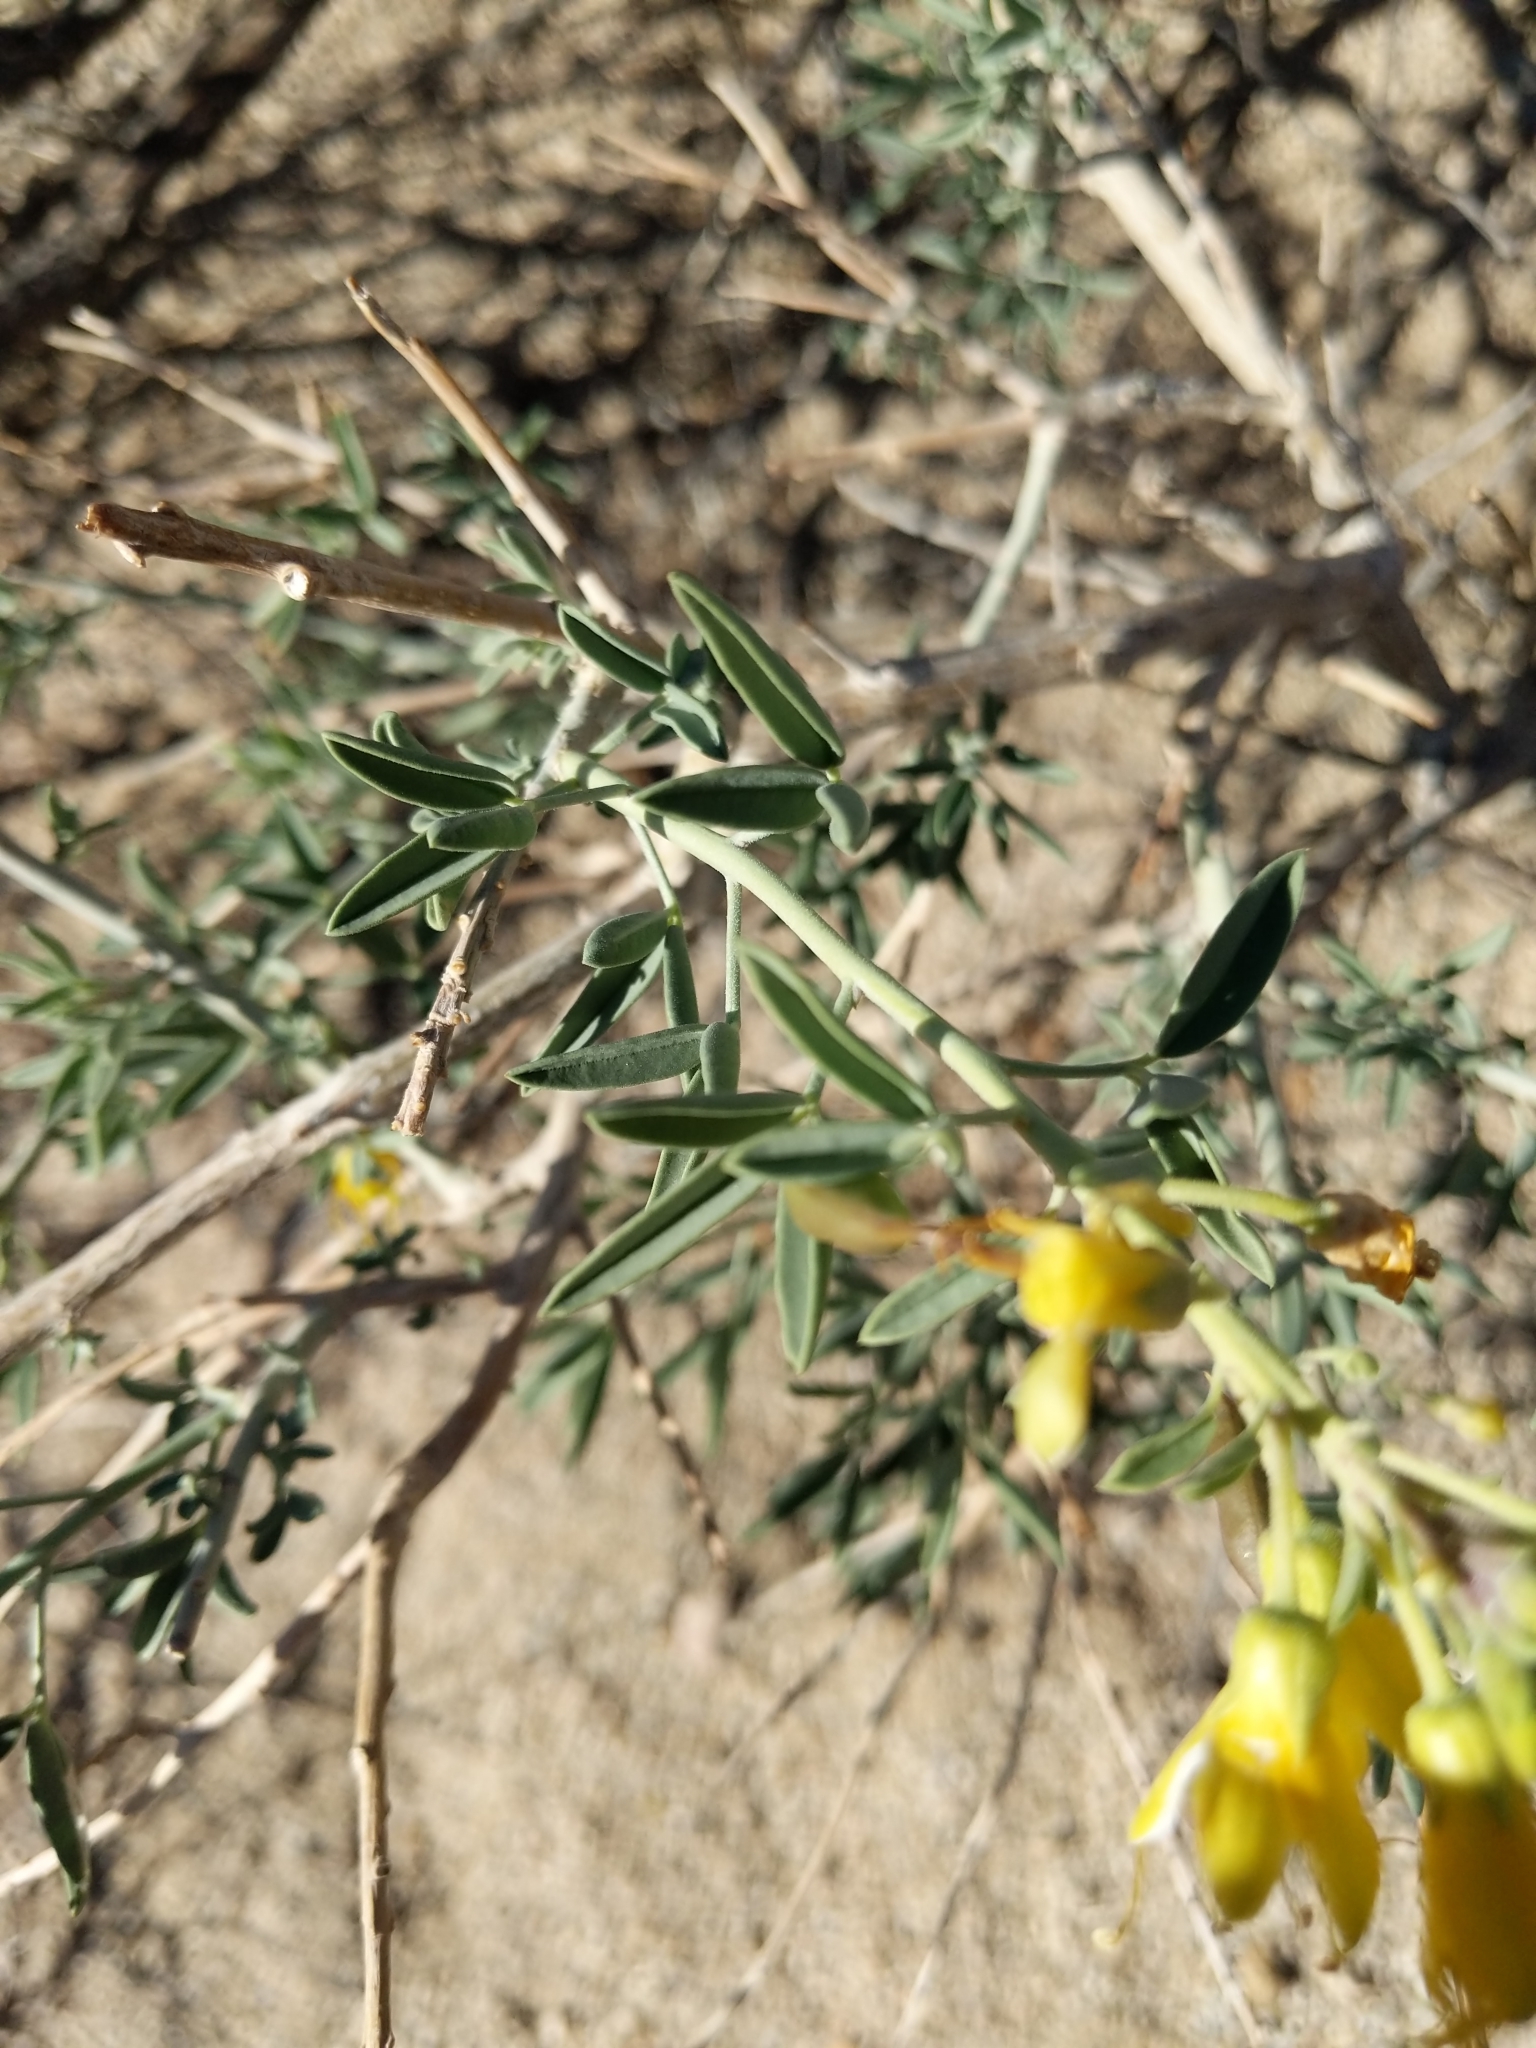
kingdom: Plantae
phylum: Tracheophyta
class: Magnoliopsida
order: Brassicales
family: Cleomaceae
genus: Cleomella
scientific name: Cleomella arborea
